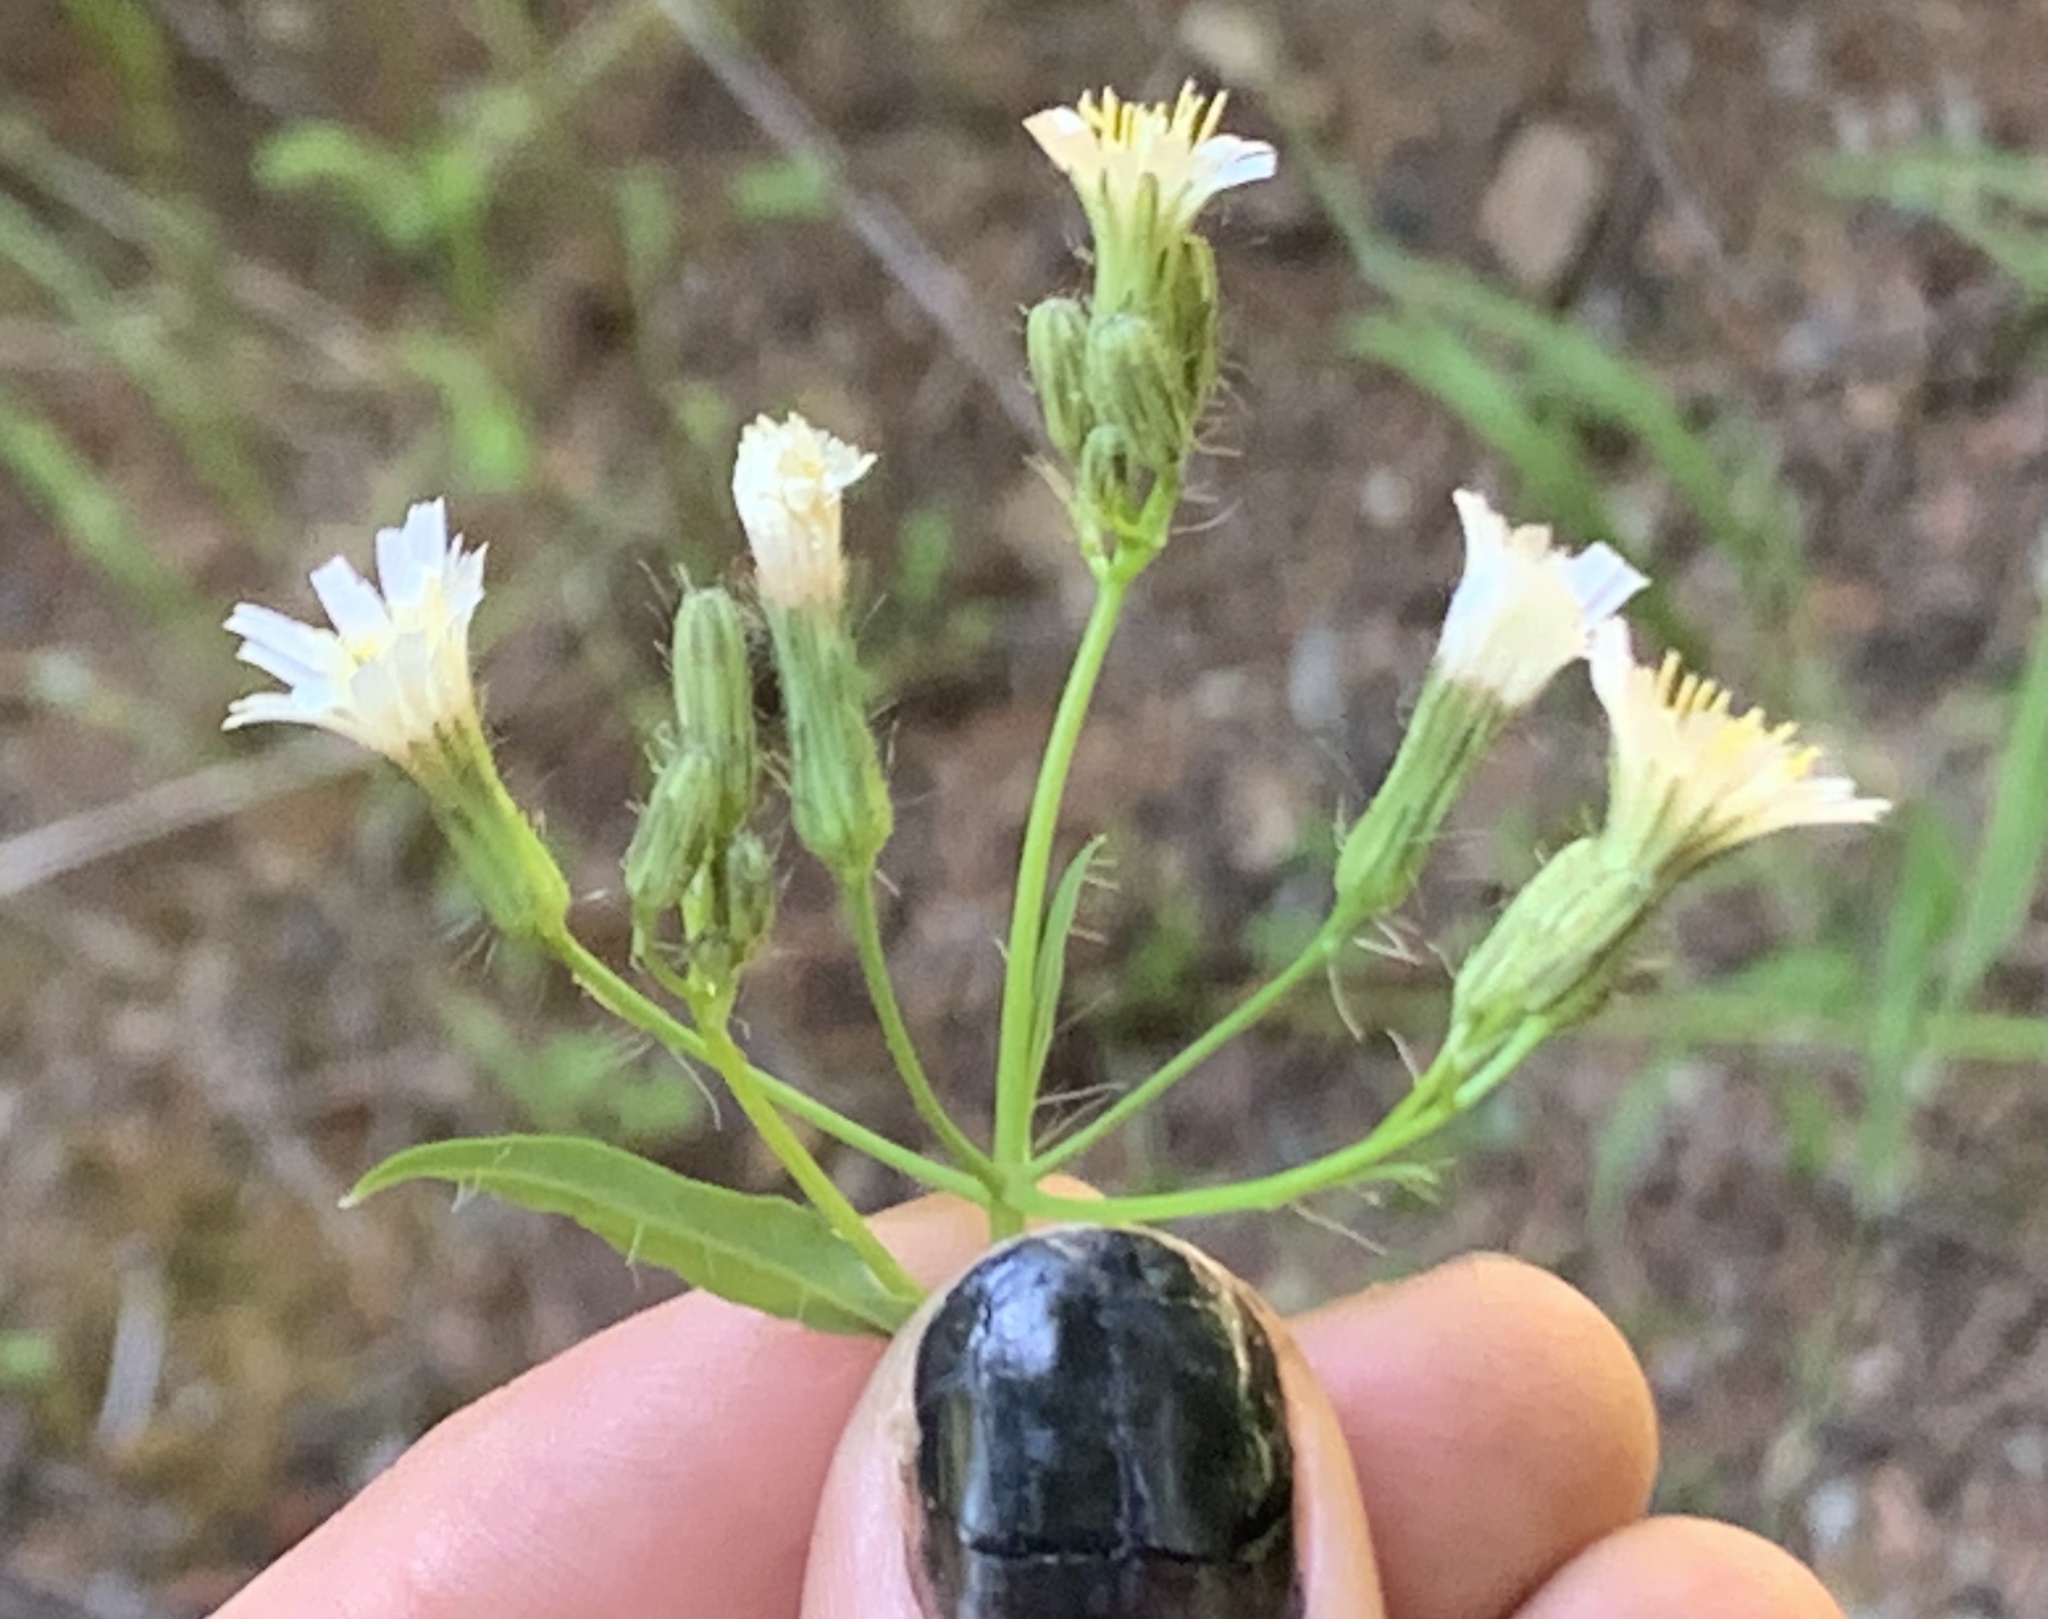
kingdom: Plantae
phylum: Tracheophyta
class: Magnoliopsida
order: Asterales
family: Asteraceae
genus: Hieracium
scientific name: Hieracium albiflorum
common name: White hawkweed
